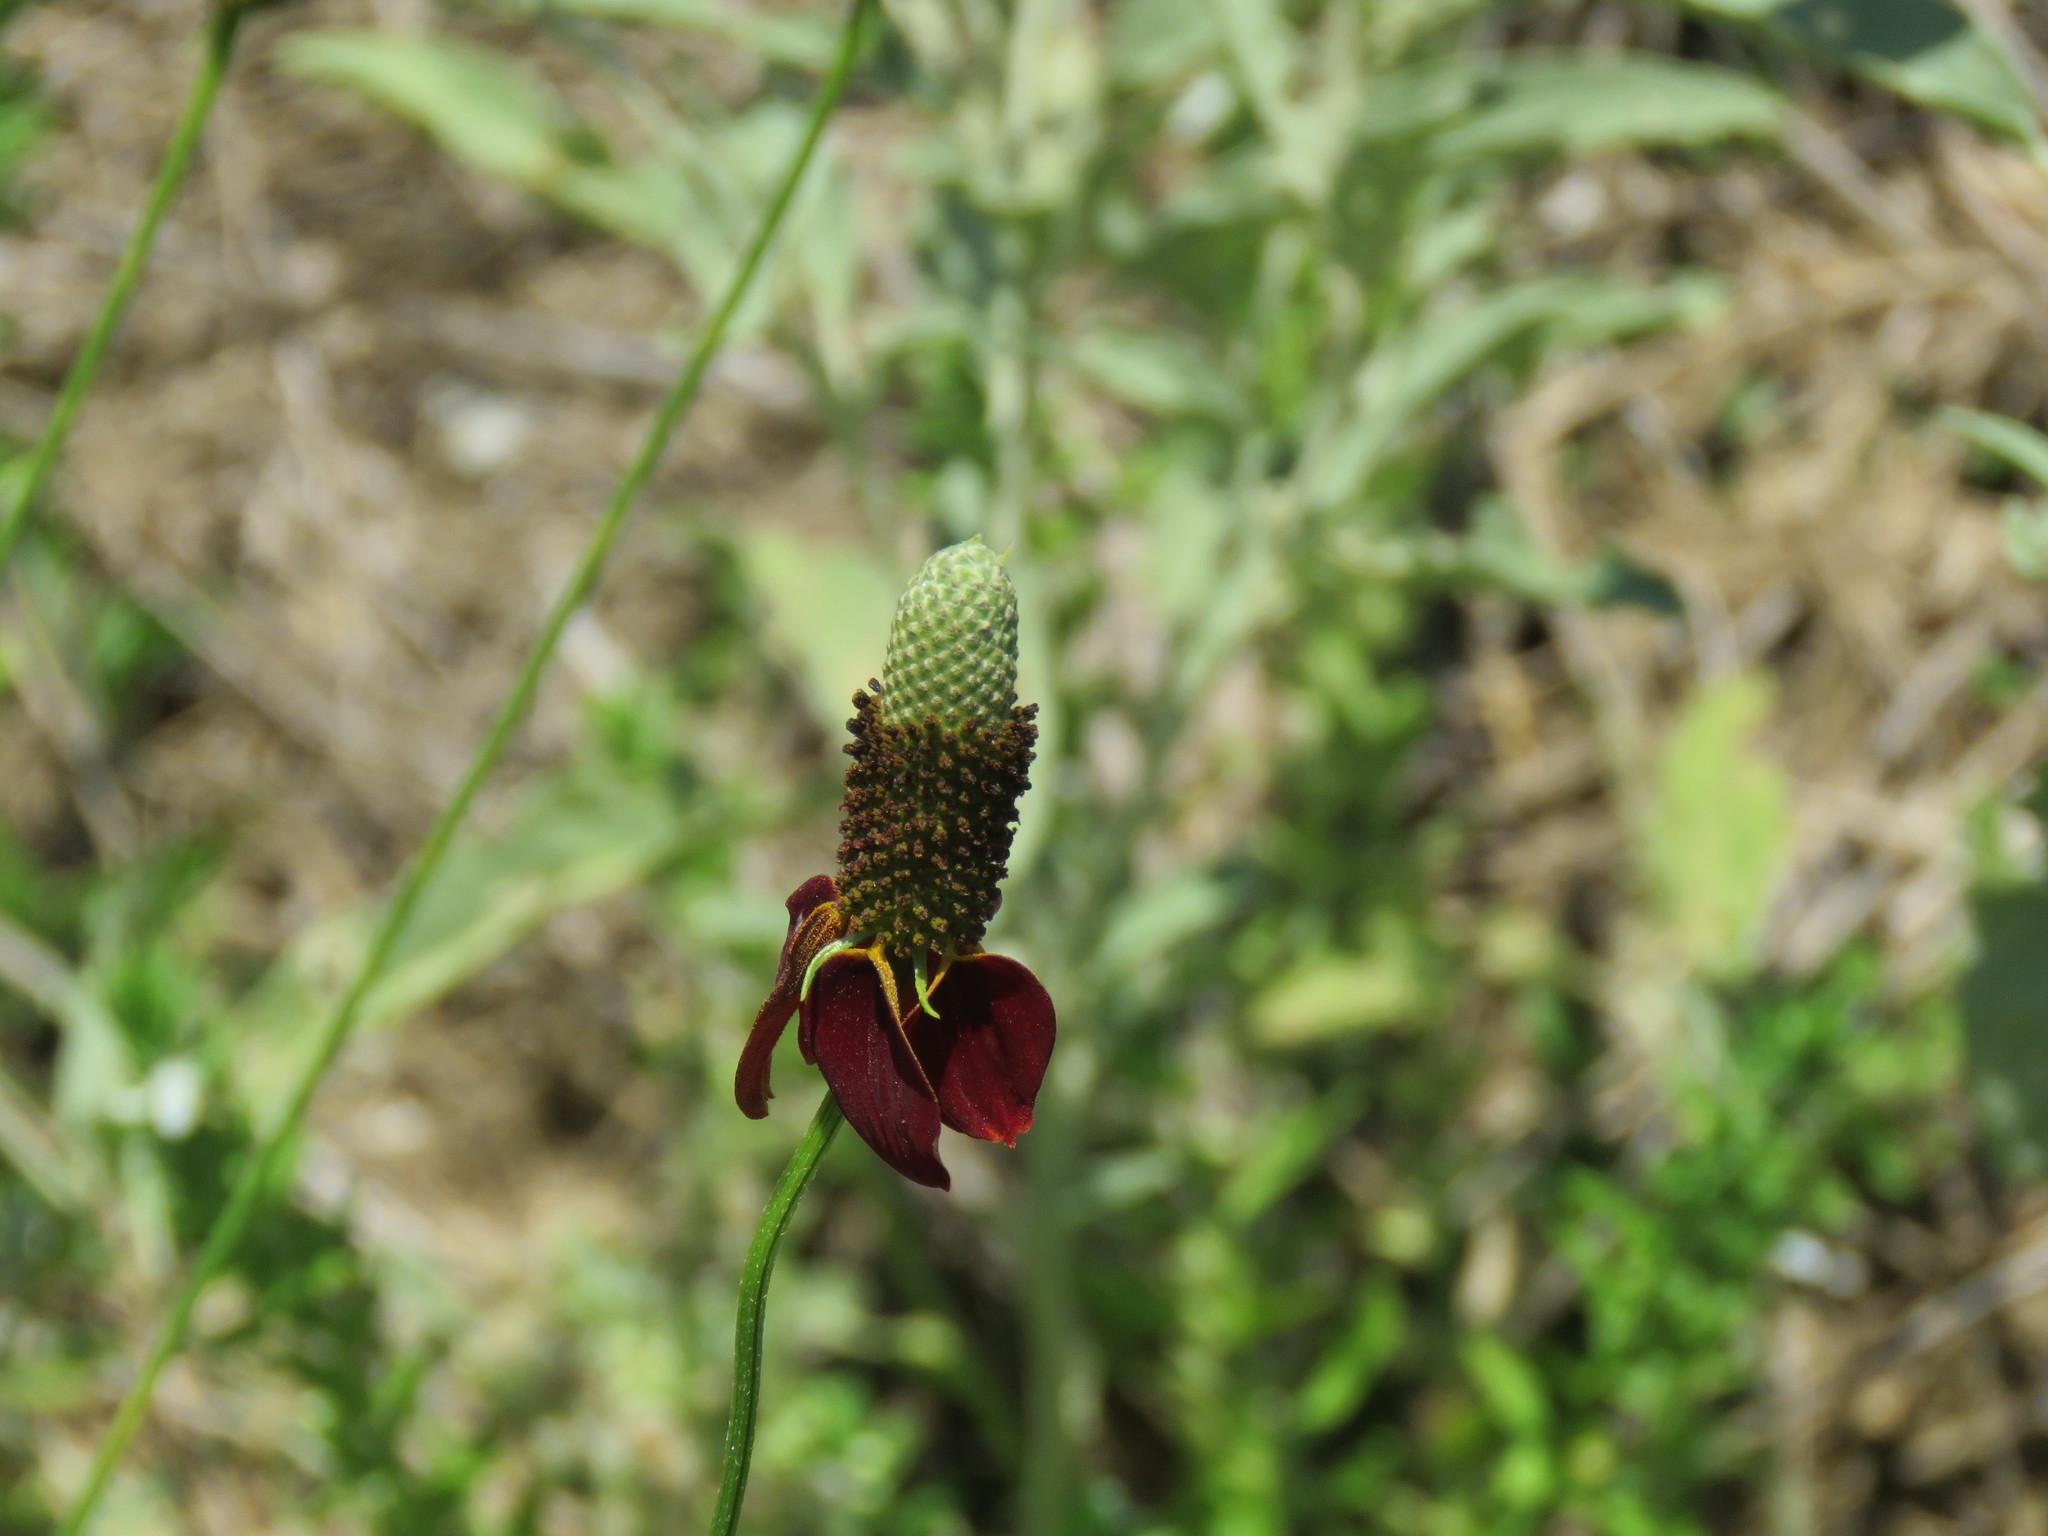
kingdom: Plantae
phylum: Tracheophyta
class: Magnoliopsida
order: Asterales
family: Asteraceae
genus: Ratibida
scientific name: Ratibida columnifera
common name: Prairie coneflower
